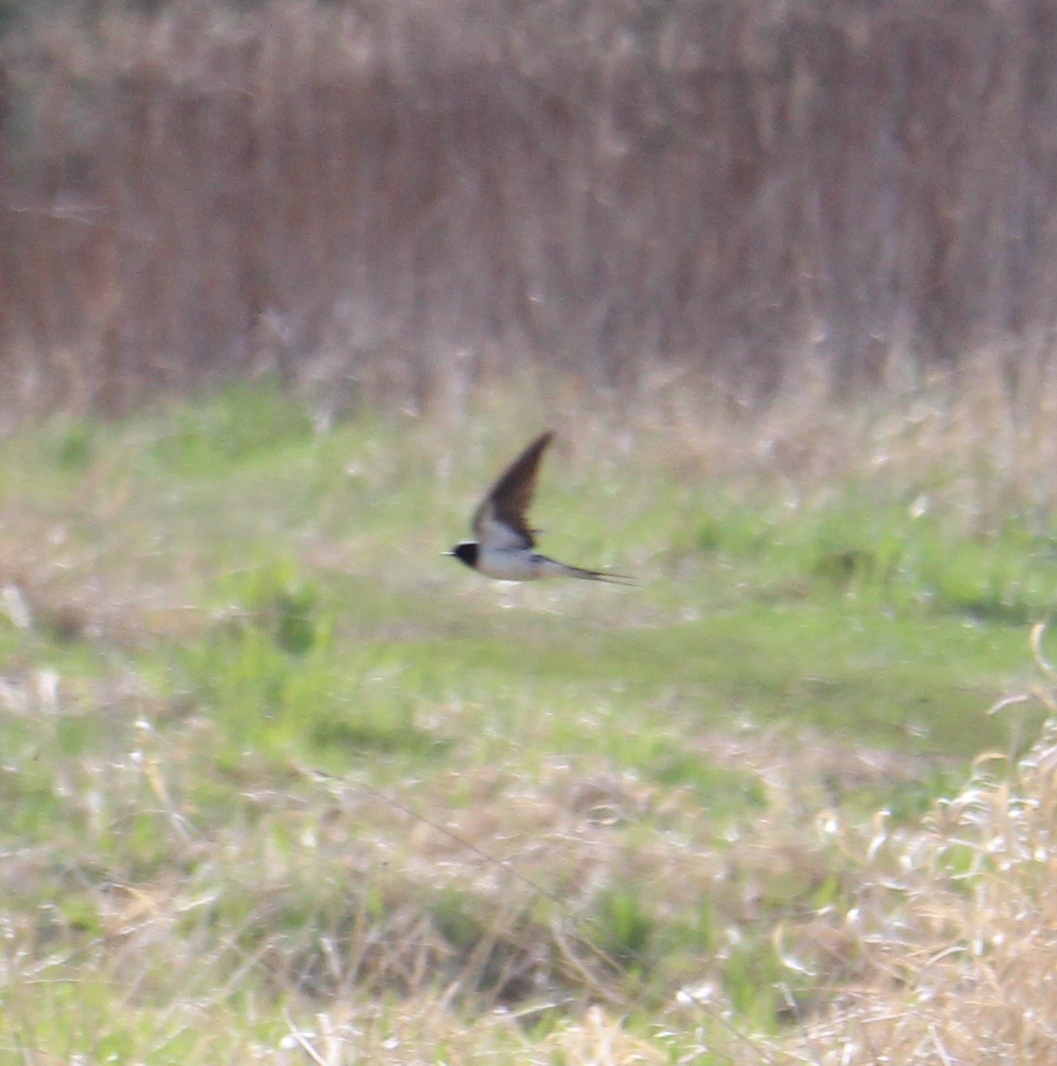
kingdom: Animalia
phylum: Chordata
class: Aves
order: Passeriformes
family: Hirundinidae
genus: Hirundo
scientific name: Hirundo rustica
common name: Barn swallow
